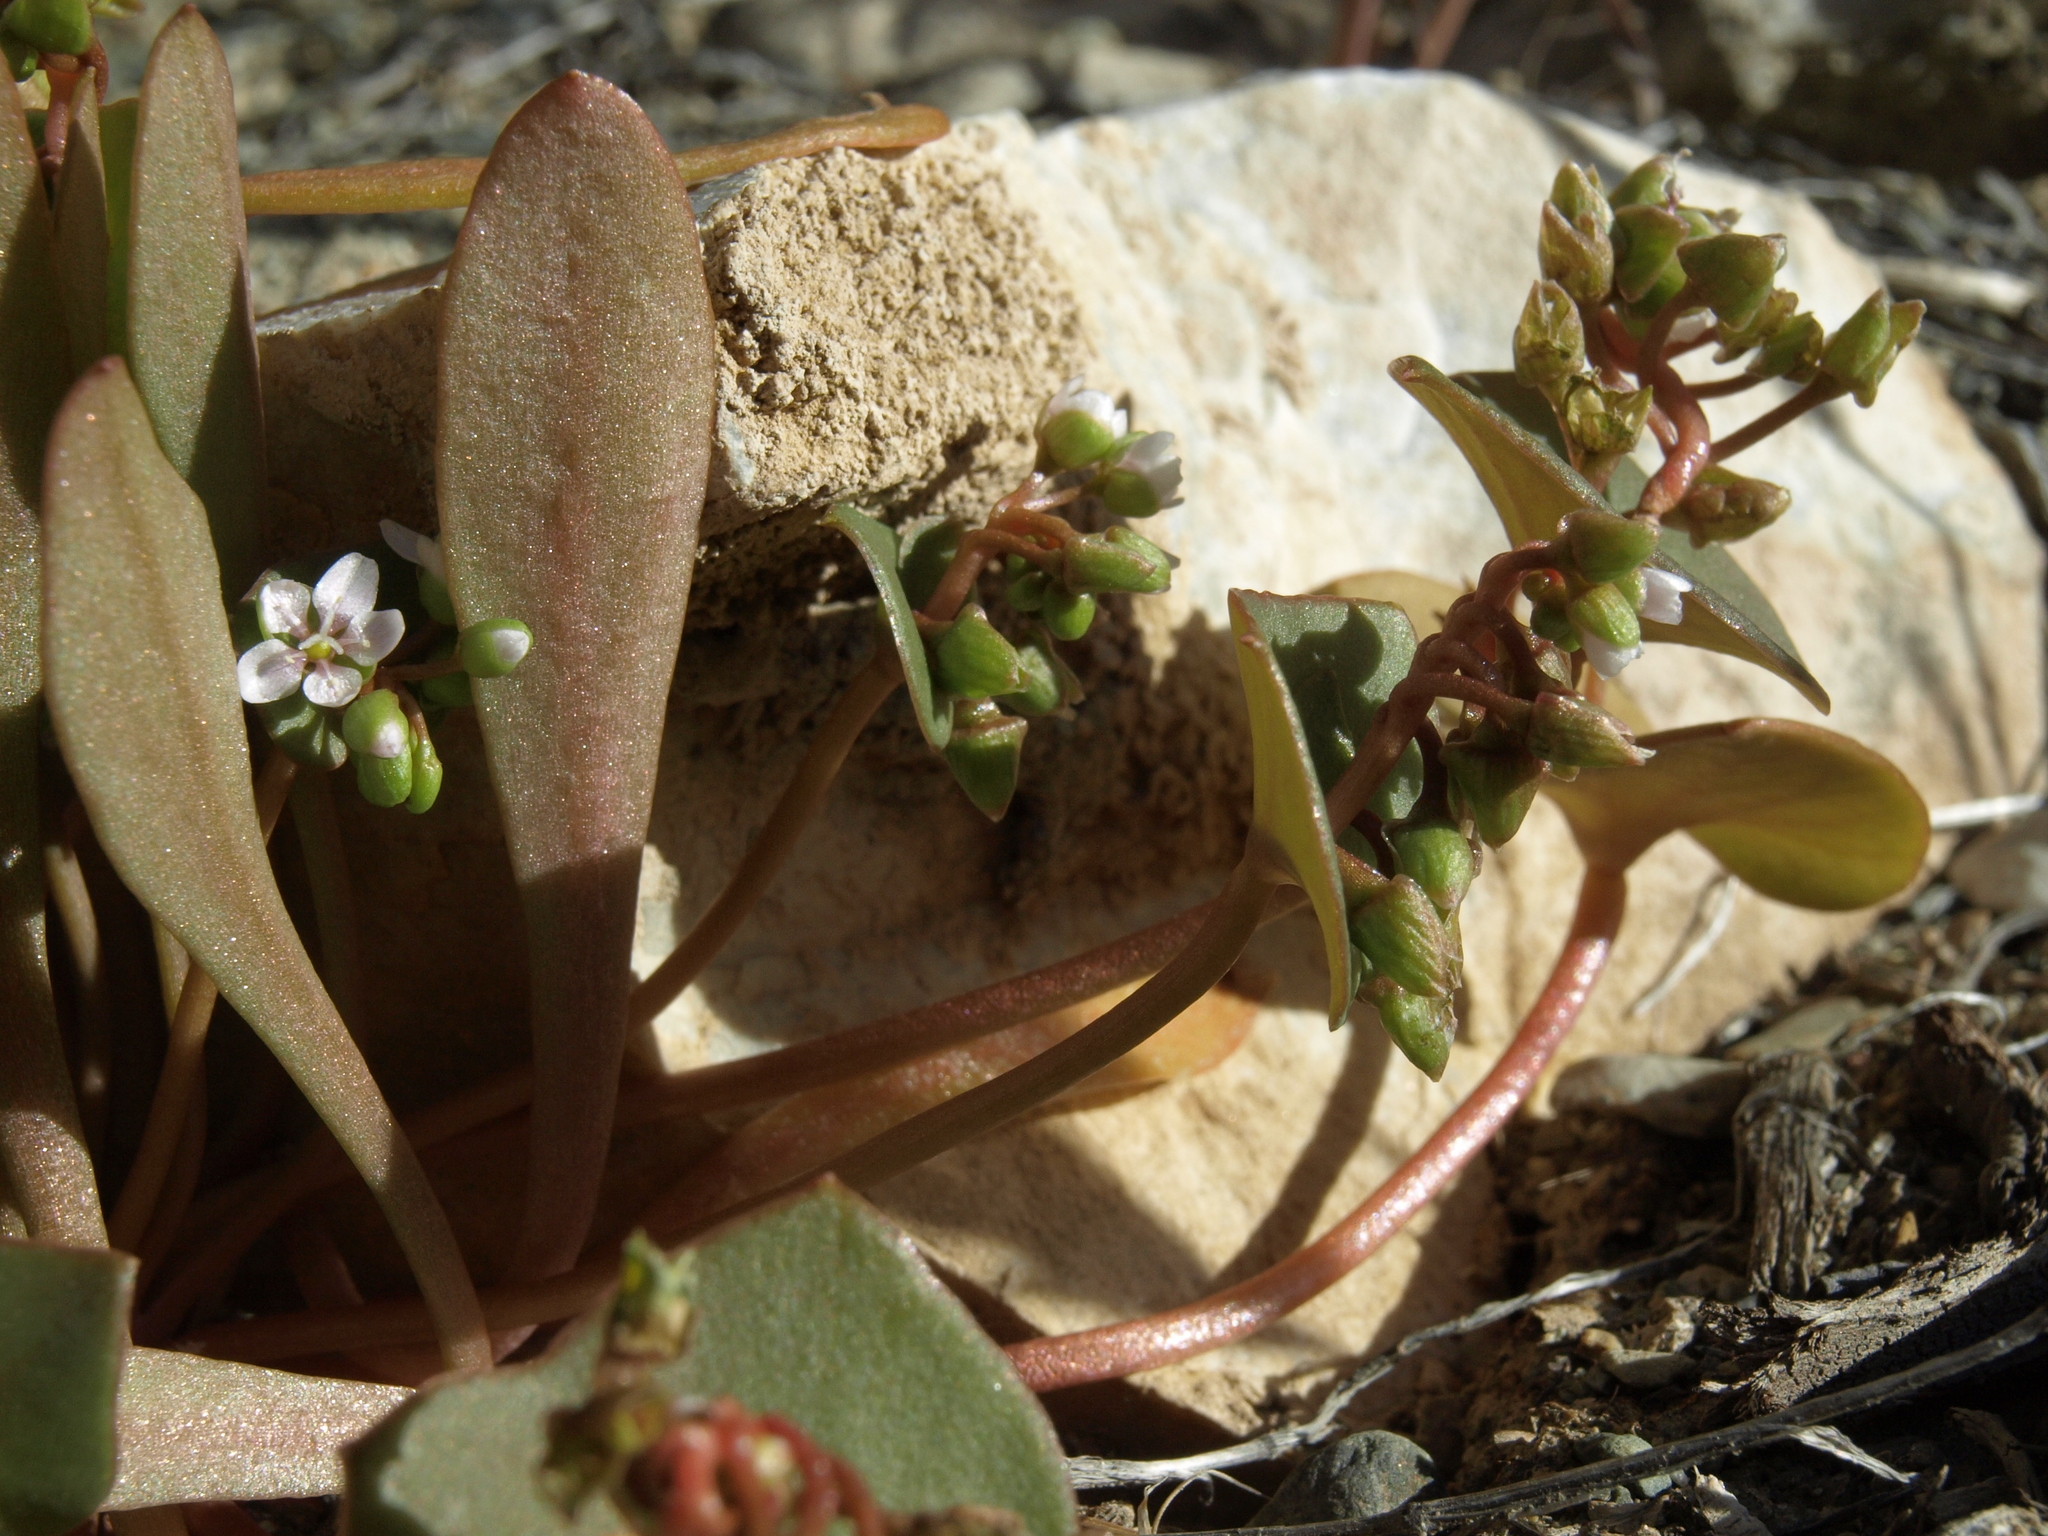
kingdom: Plantae
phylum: Tracheophyta
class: Magnoliopsida
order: Caryophyllales
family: Montiaceae
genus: Claytonia
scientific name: Claytonia perfoliata
